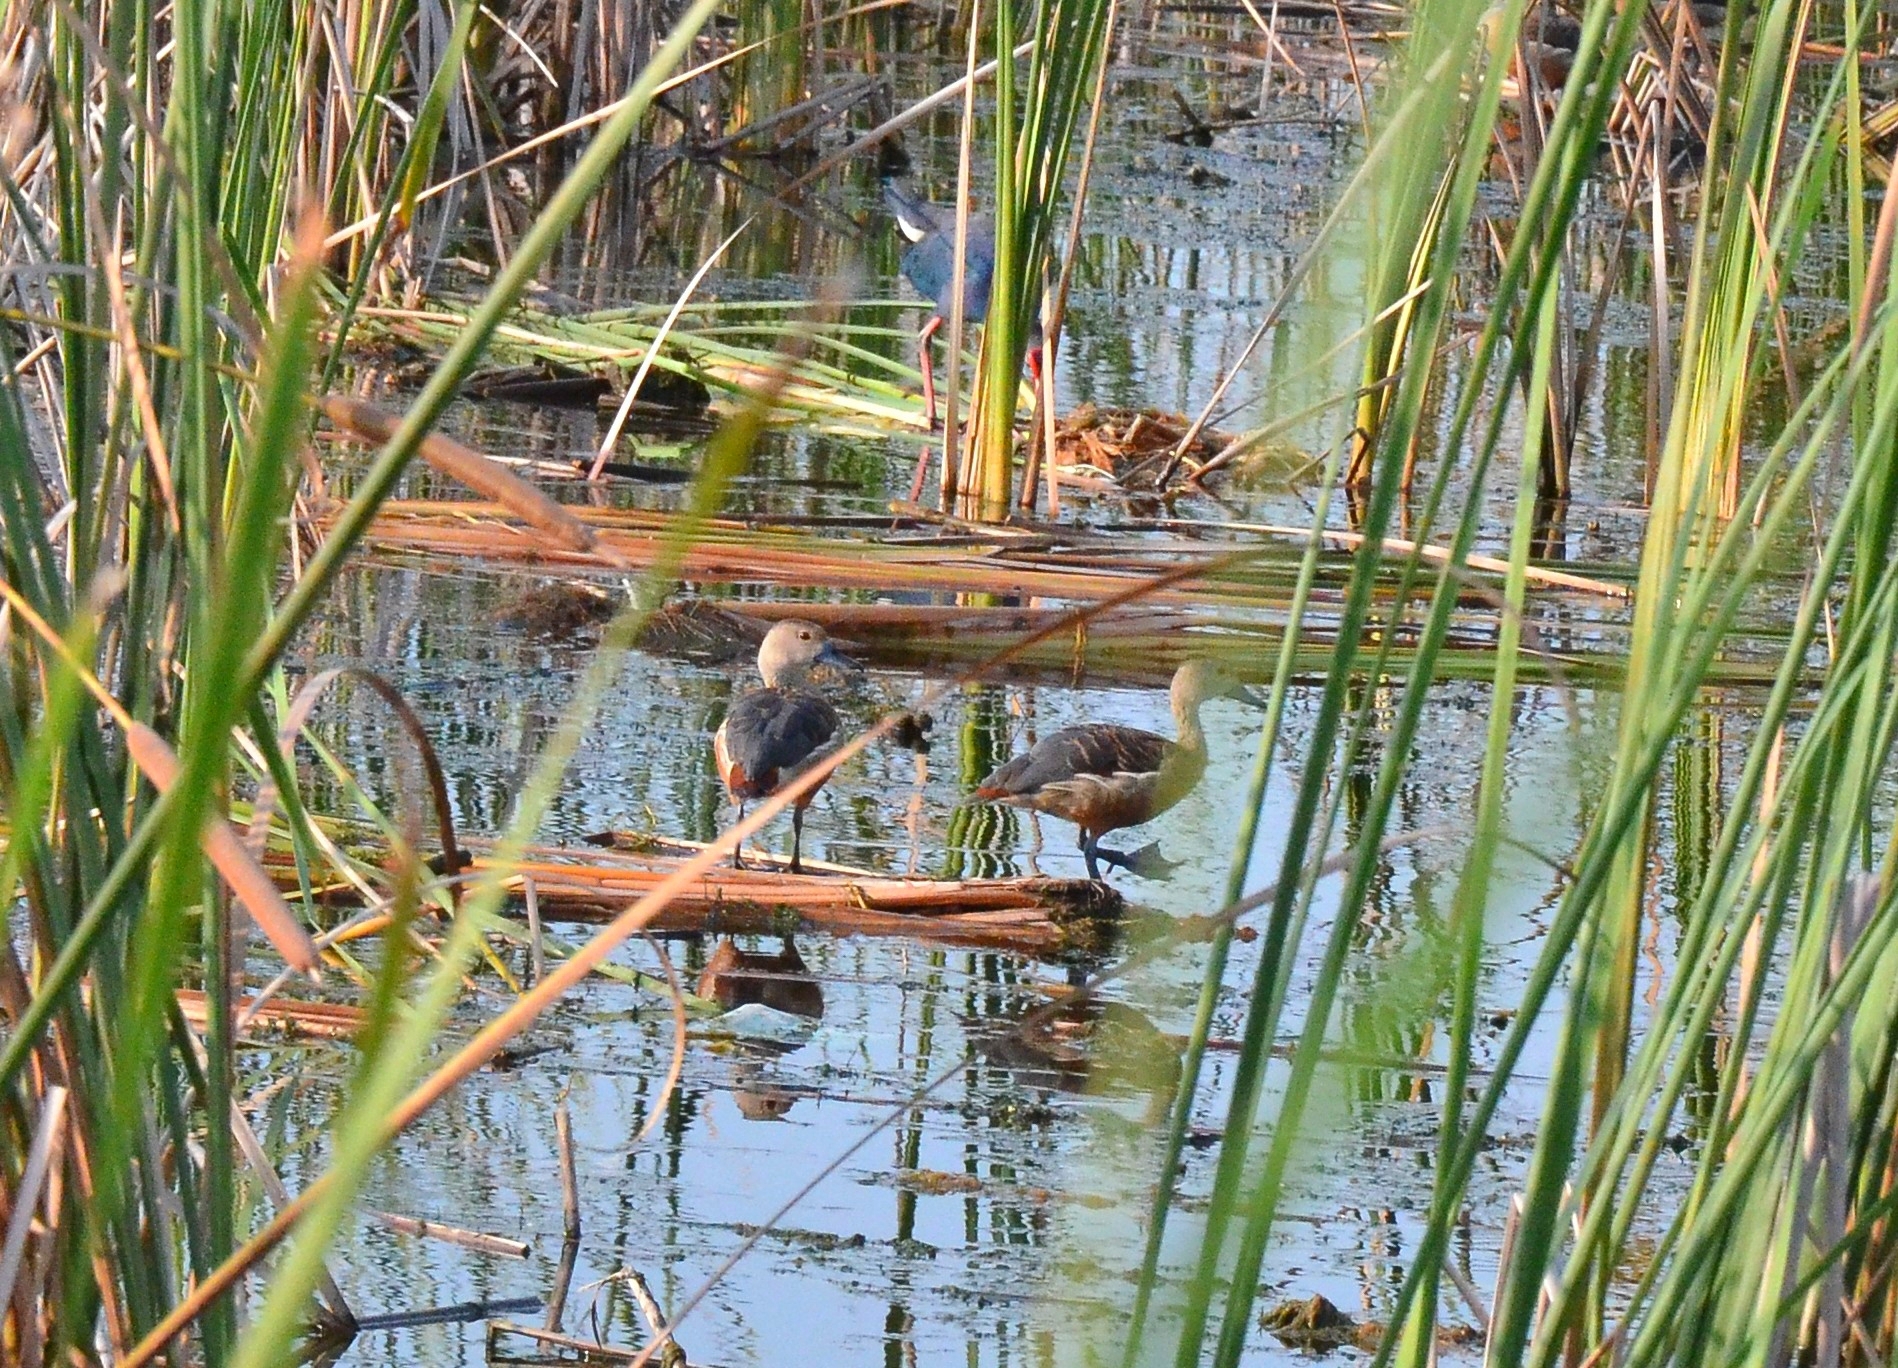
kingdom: Animalia
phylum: Chordata
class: Aves
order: Anseriformes
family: Anatidae
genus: Dendrocygna
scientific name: Dendrocygna javanica
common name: Lesser whistling-duck
